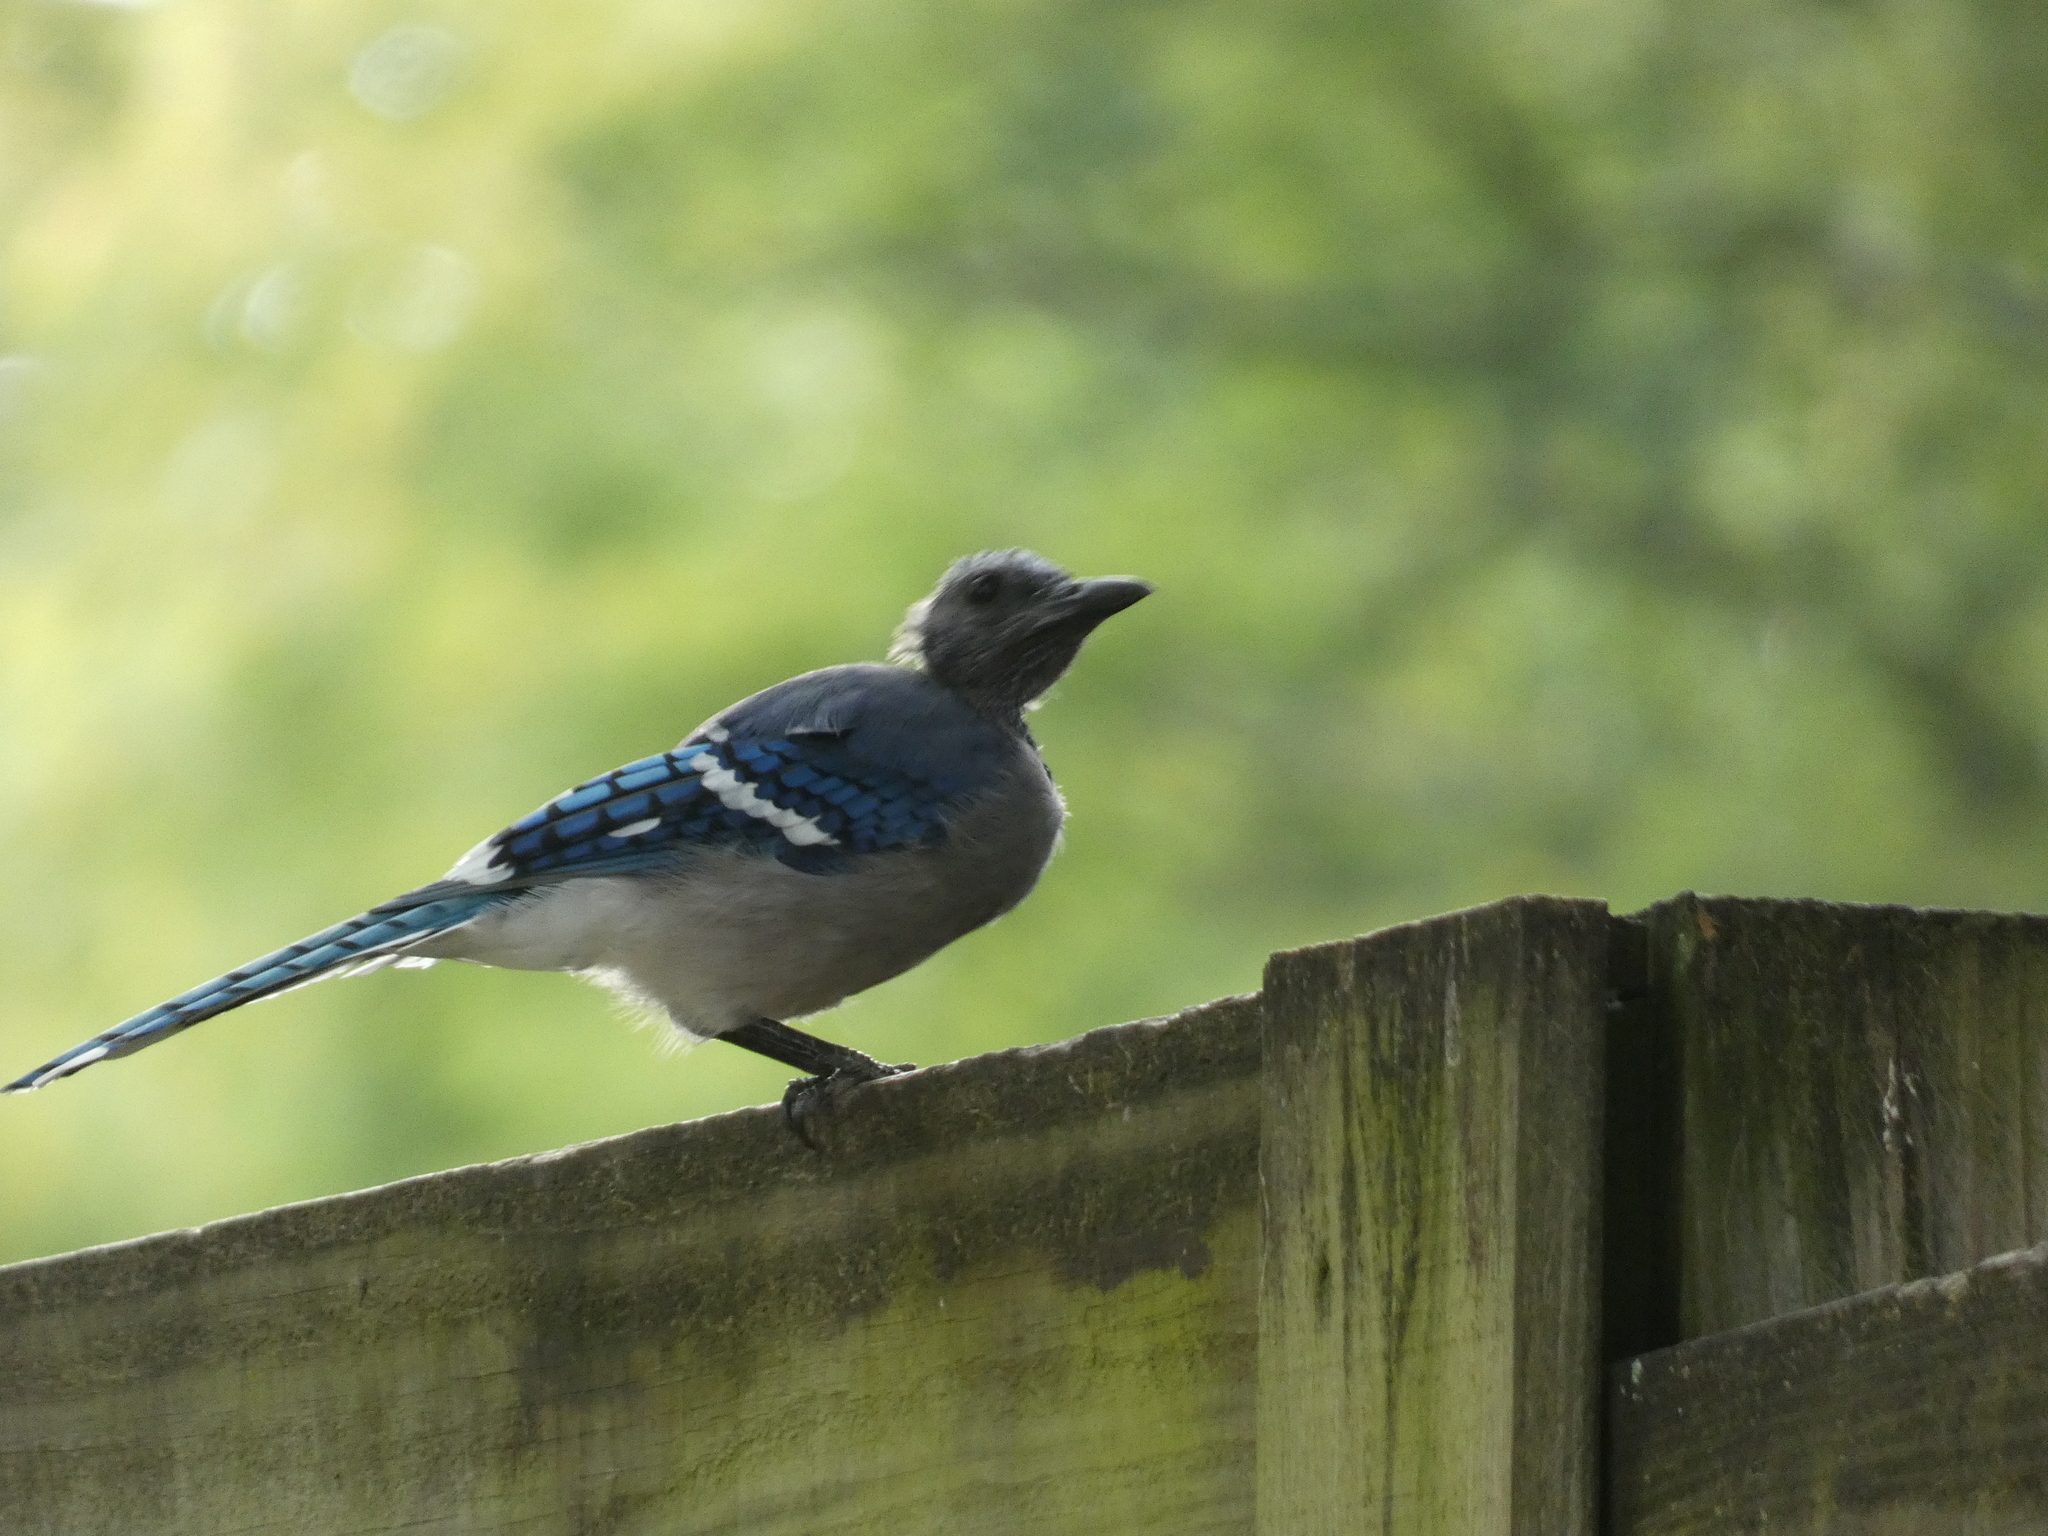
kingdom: Animalia
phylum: Chordata
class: Aves
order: Passeriformes
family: Corvidae
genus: Cyanocitta
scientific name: Cyanocitta cristata
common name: Blue jay
